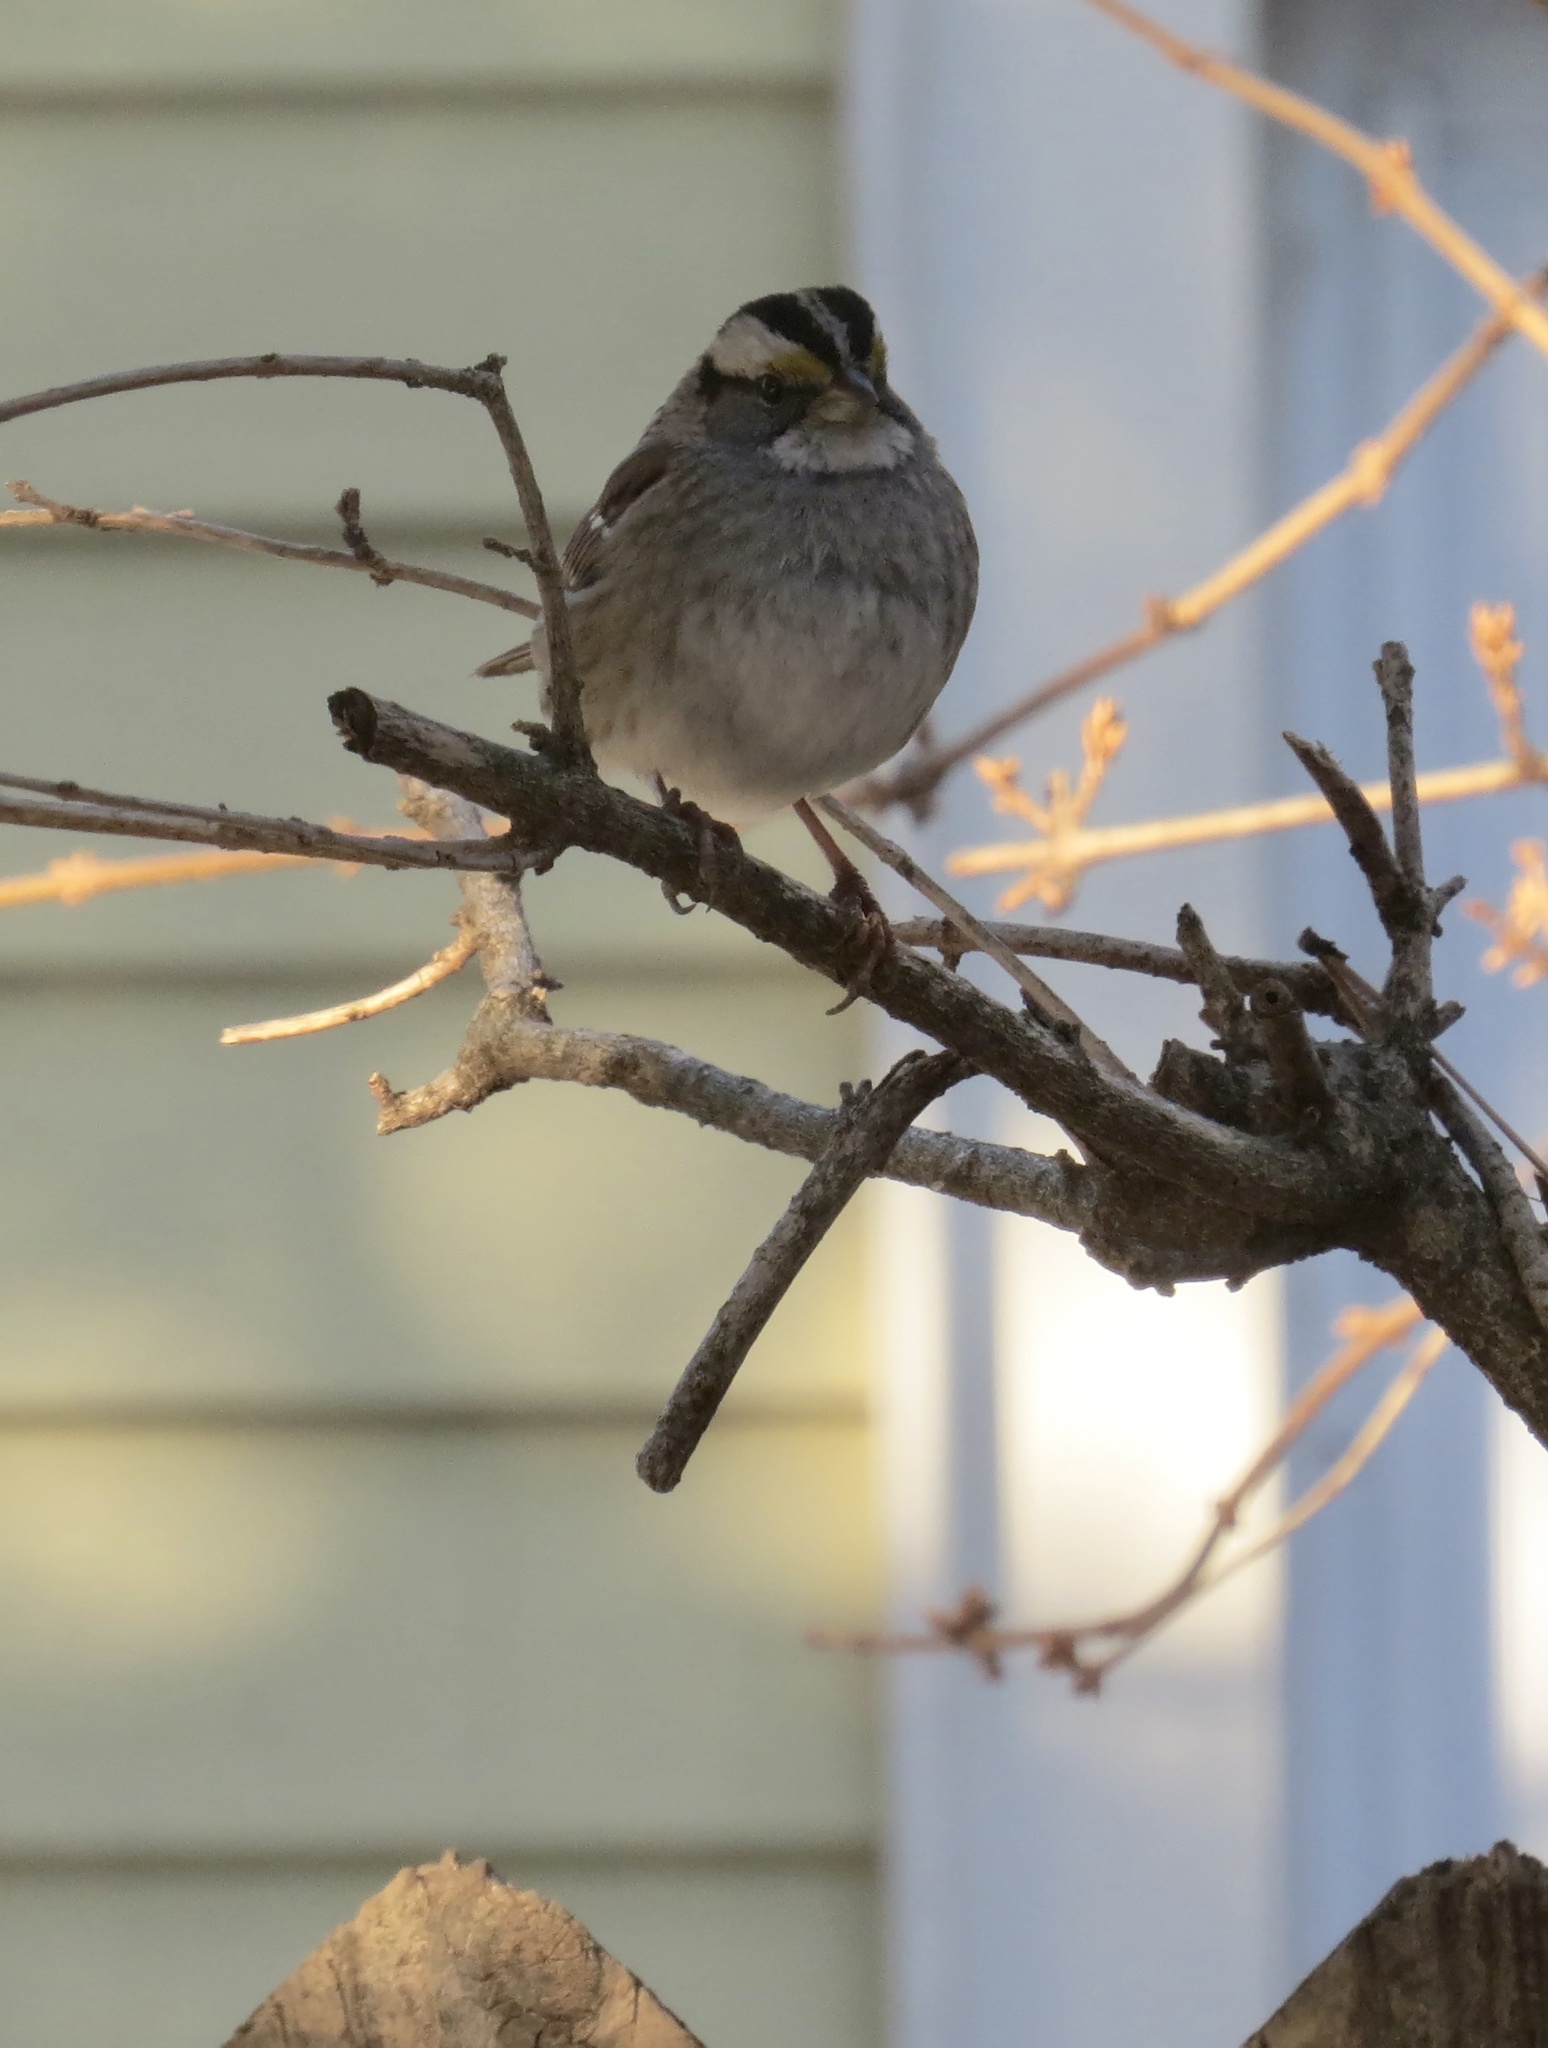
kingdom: Animalia
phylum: Chordata
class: Aves
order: Passeriformes
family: Passerellidae
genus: Zonotrichia
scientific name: Zonotrichia albicollis
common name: White-throated sparrow
